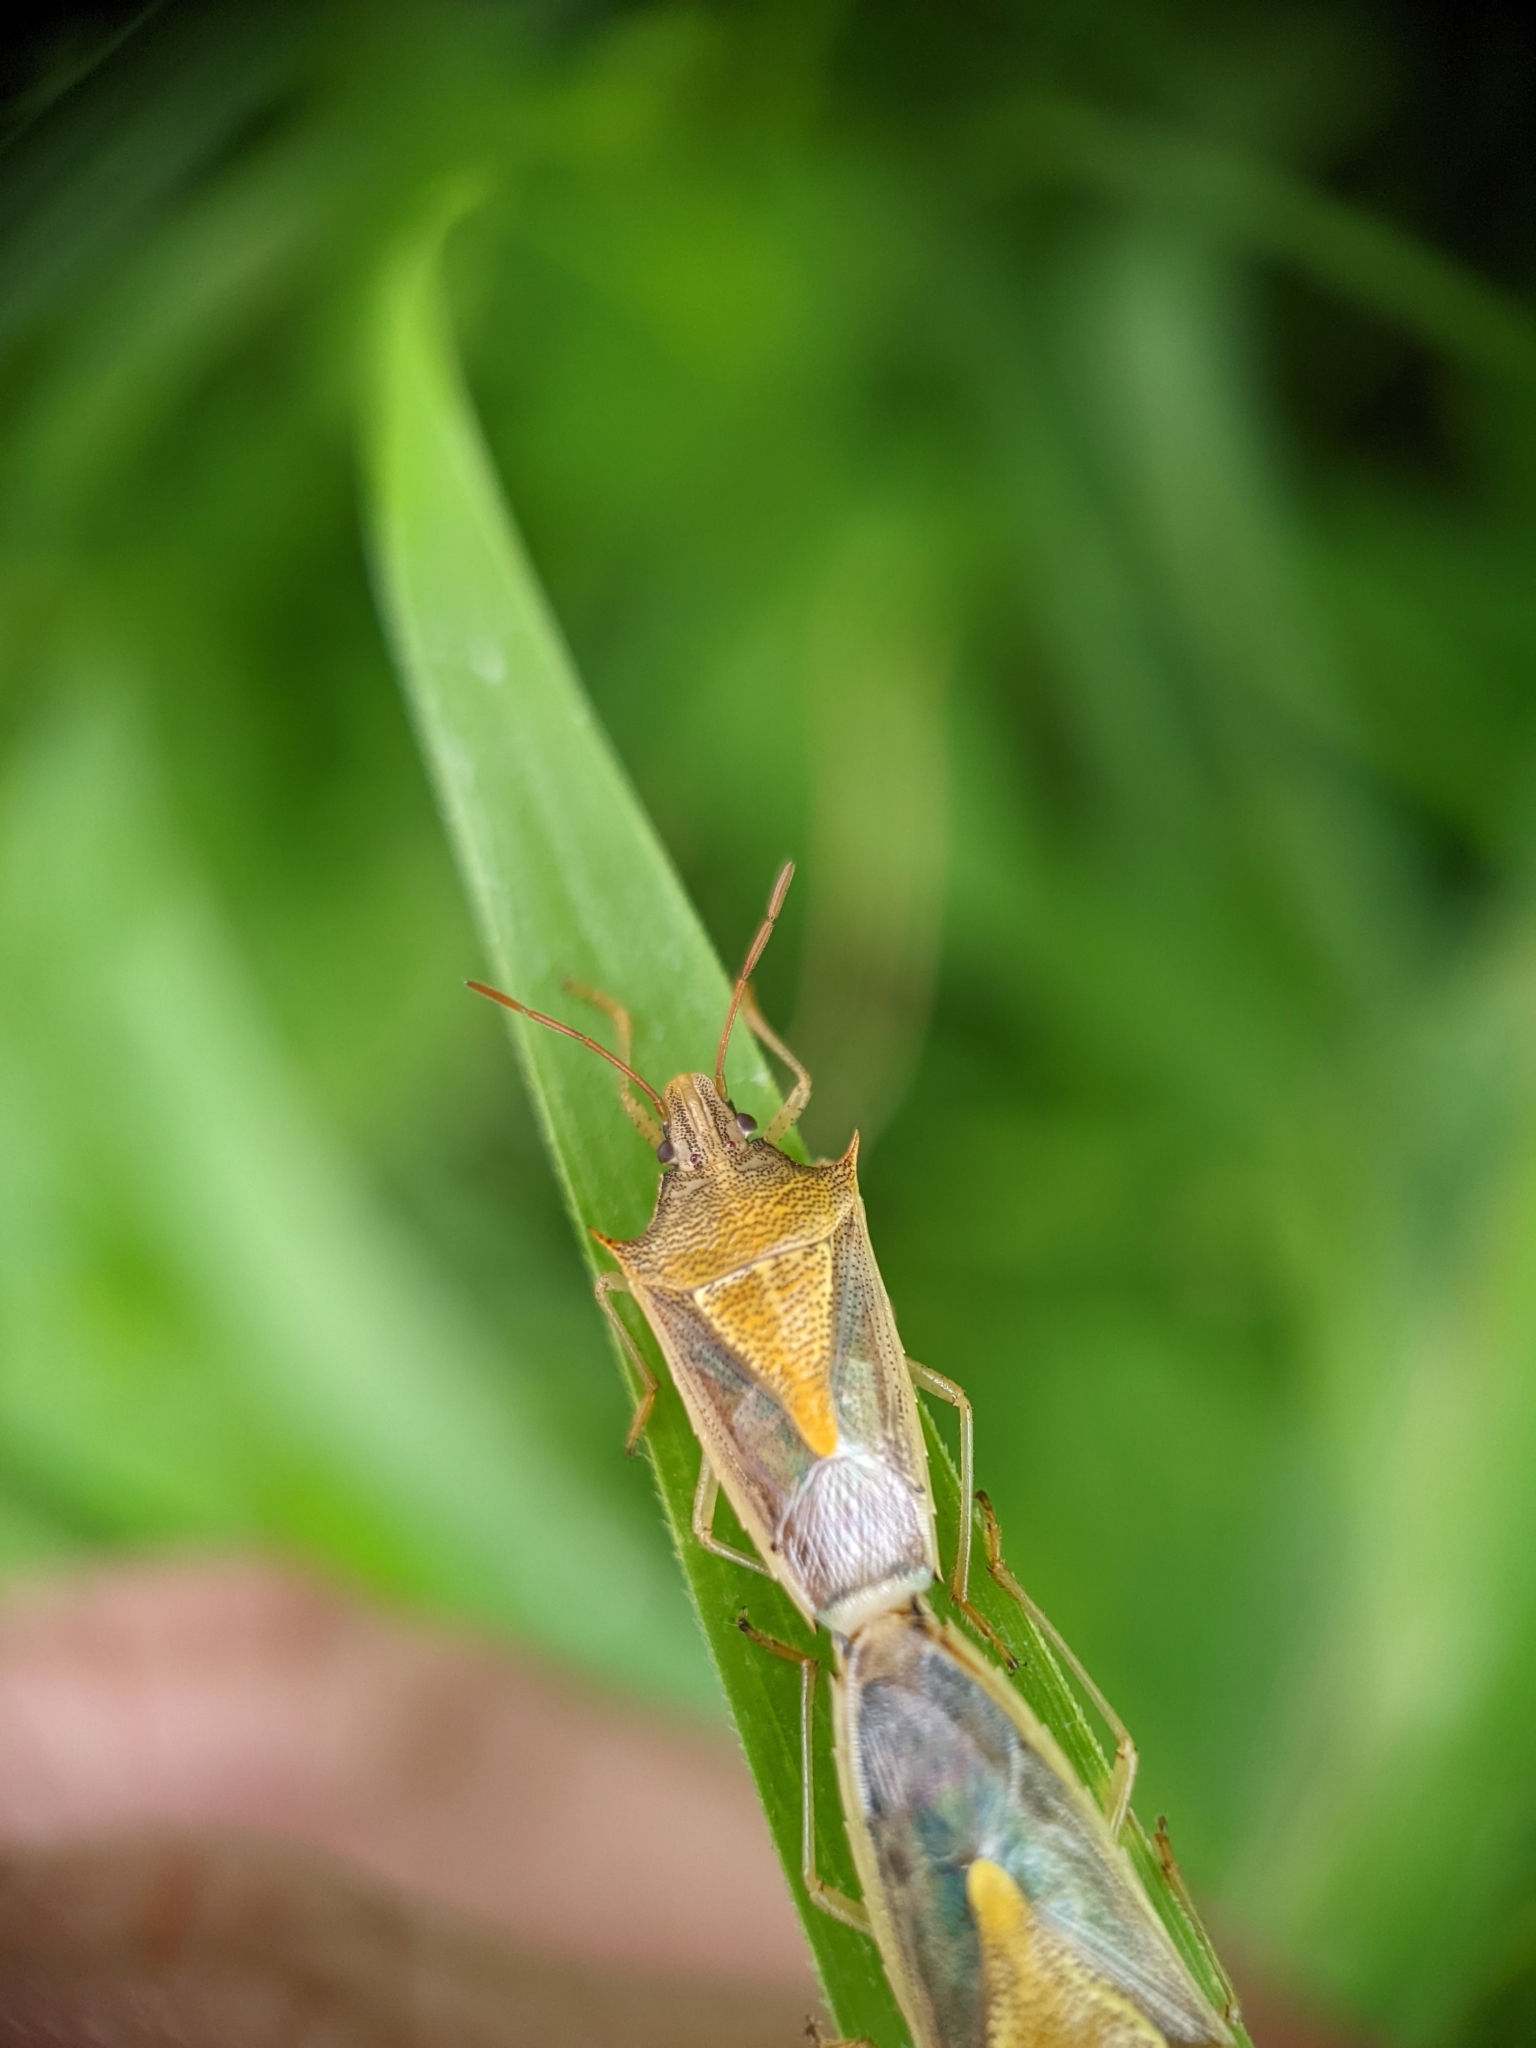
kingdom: Animalia
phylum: Arthropoda
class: Insecta
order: Hemiptera
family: Pentatomidae
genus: Oebalus
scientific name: Oebalus pugnax
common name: Rice stink bug
